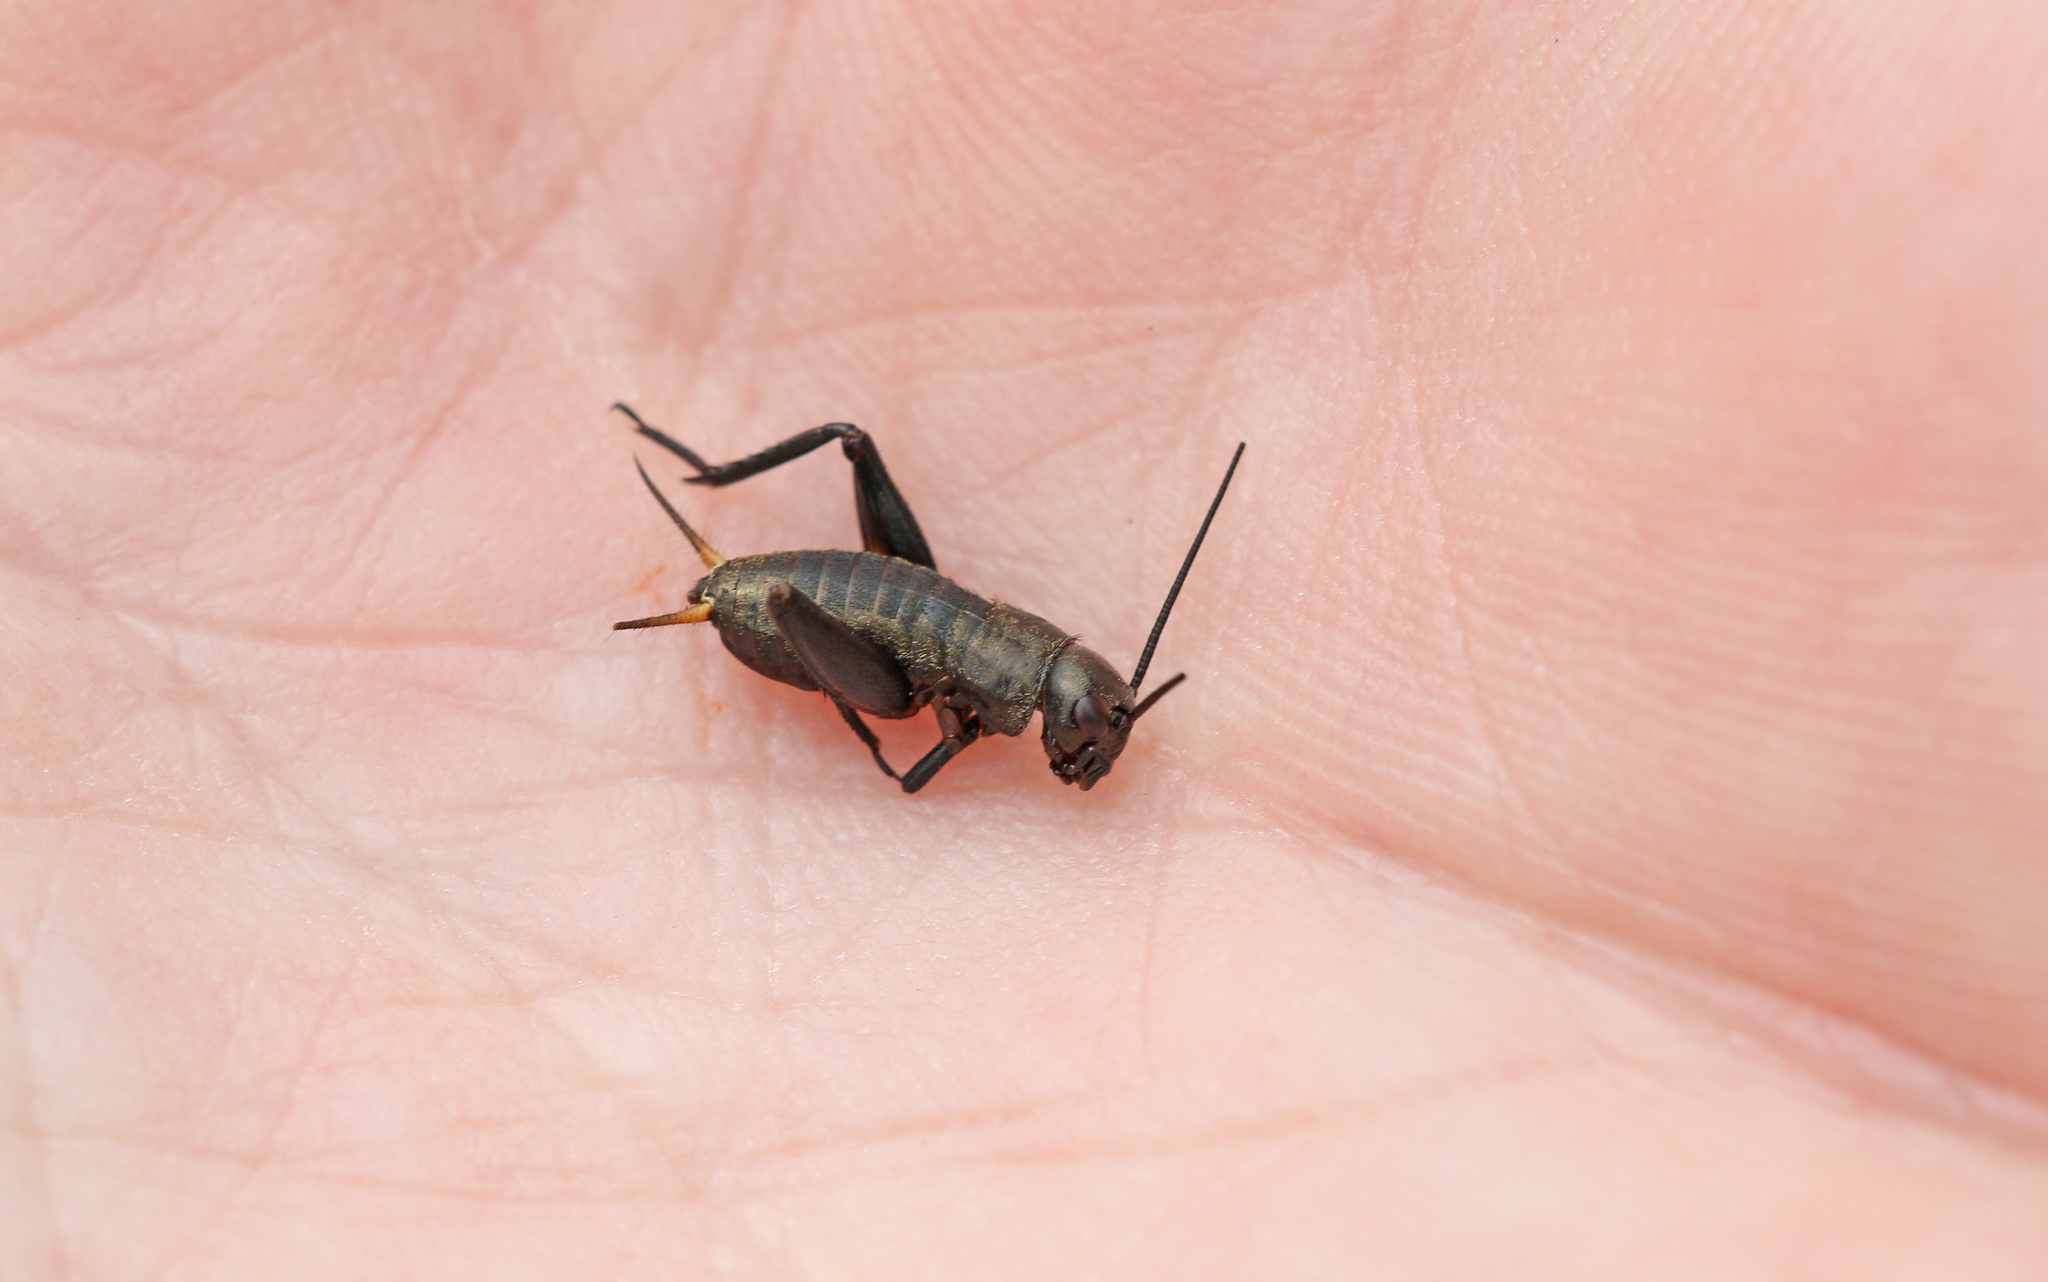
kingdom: Animalia
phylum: Arthropoda
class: Insecta
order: Orthoptera
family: Gryllidae
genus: Gryllus
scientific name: Gryllus campestris
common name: Field cricket
